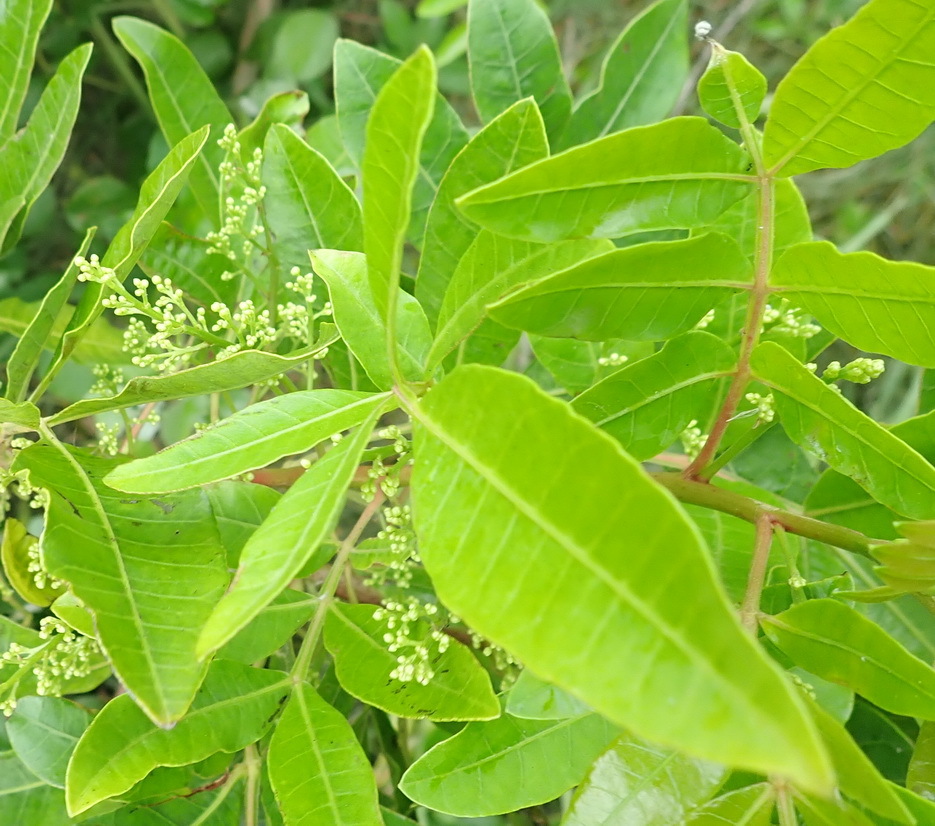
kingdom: Plantae
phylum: Tracheophyta
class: Magnoliopsida
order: Sapindales
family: Anacardiaceae
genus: Schinus
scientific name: Schinus terebinthifolia
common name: Brazilian peppertree
